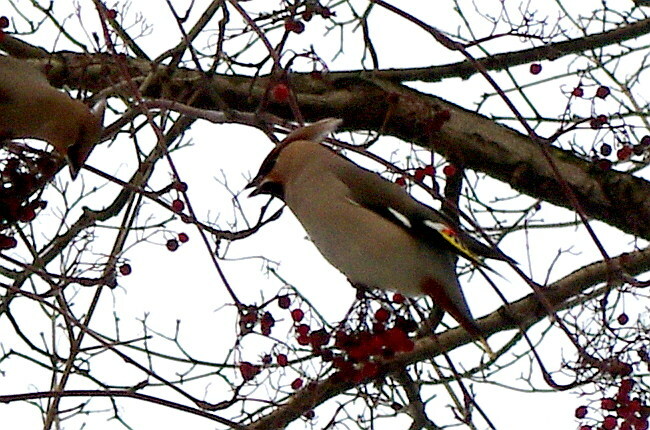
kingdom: Animalia
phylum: Chordata
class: Aves
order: Passeriformes
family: Bombycillidae
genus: Bombycilla
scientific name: Bombycilla garrulus
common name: Bohemian waxwing
